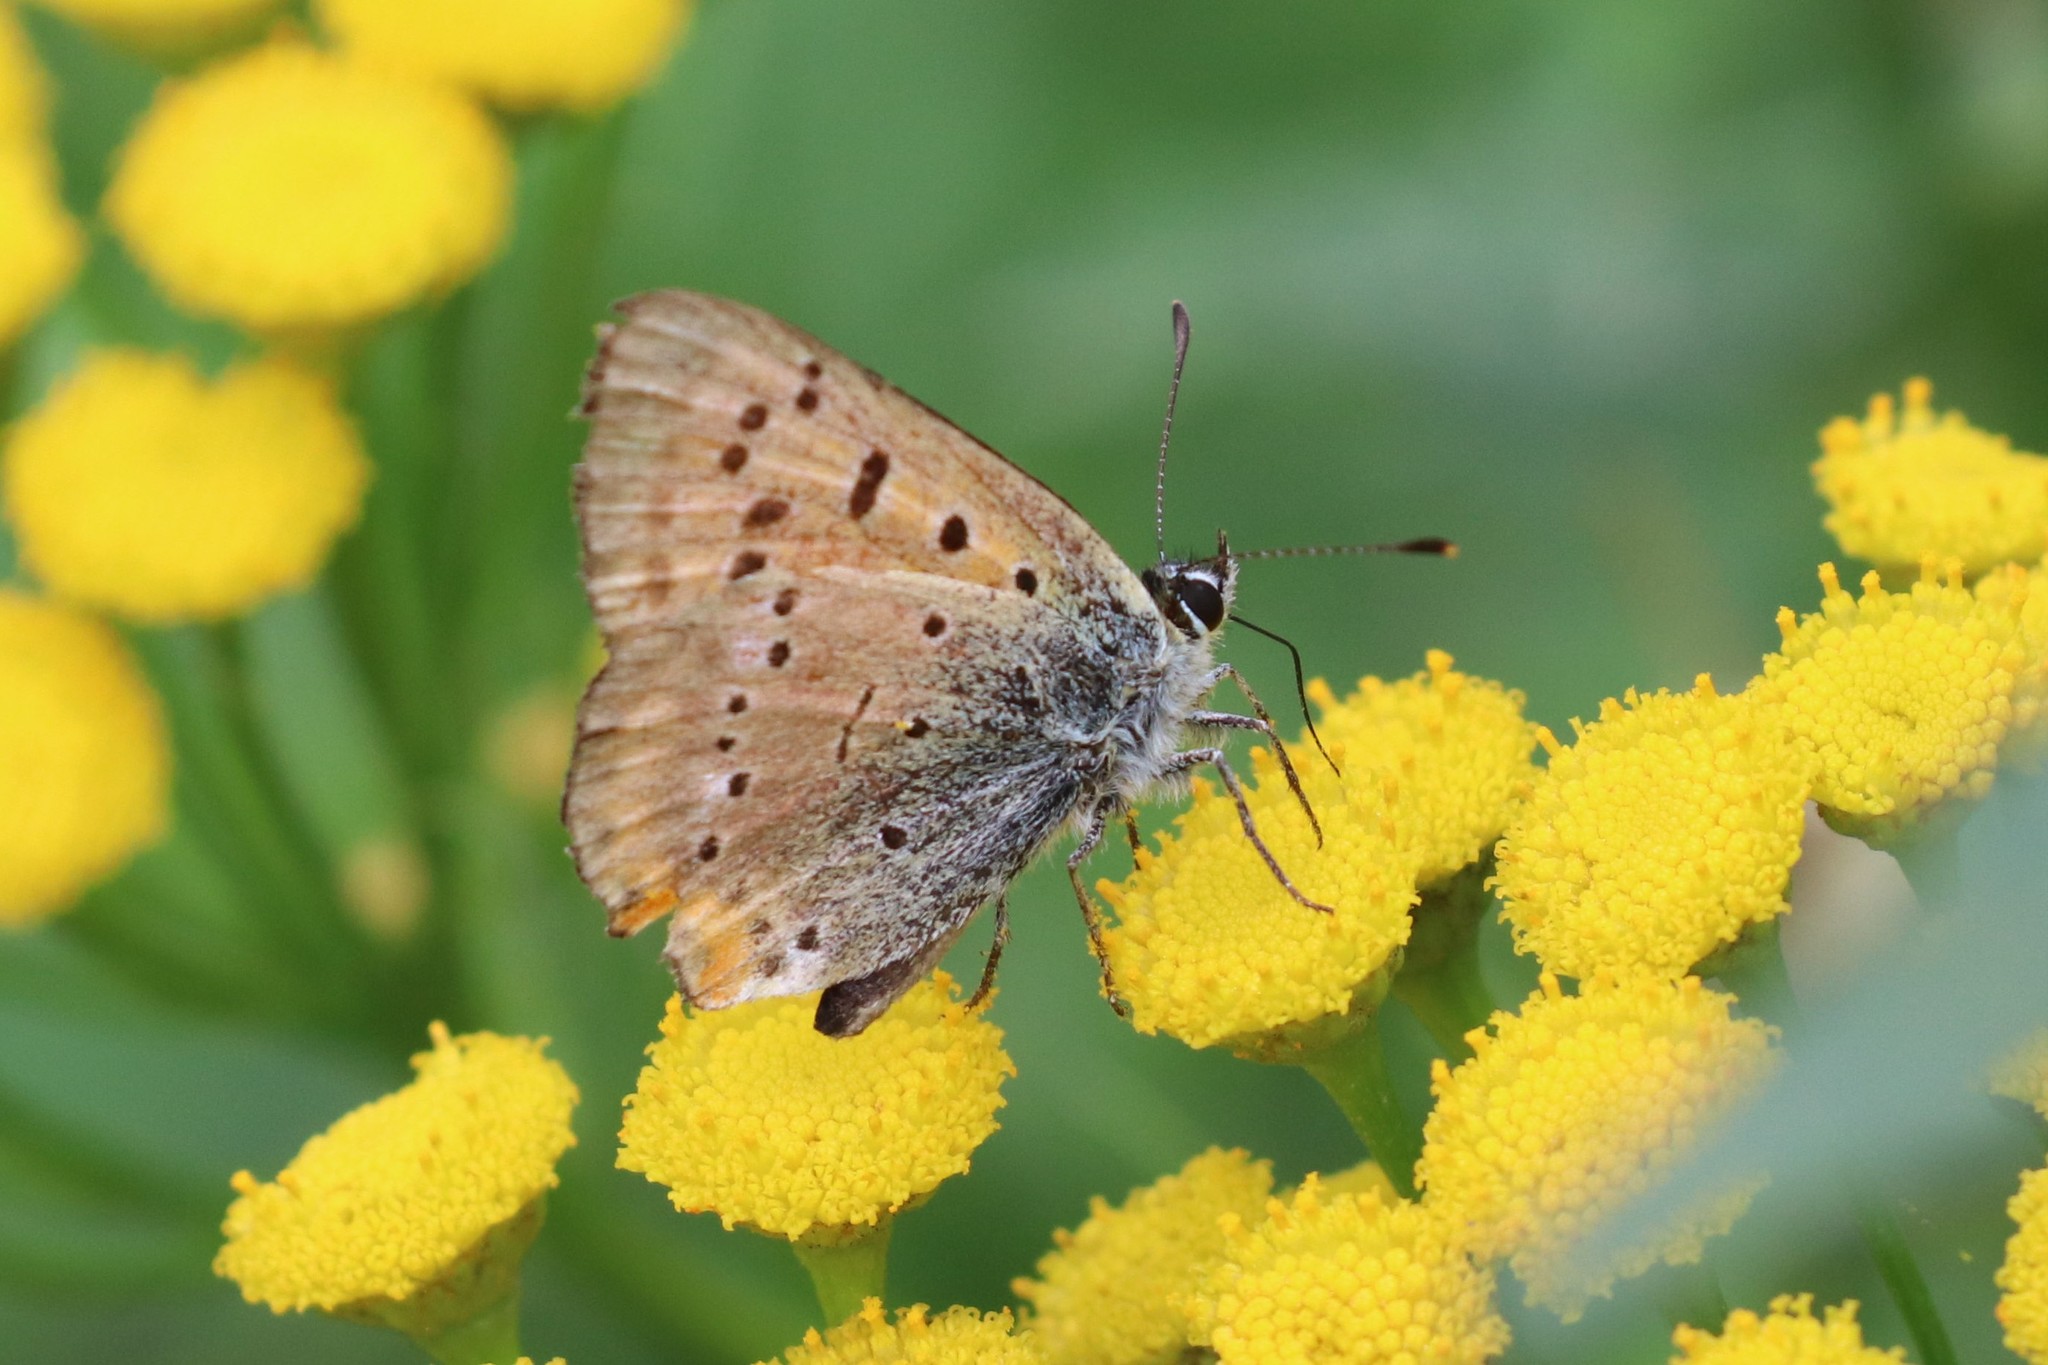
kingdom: Animalia
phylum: Arthropoda
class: Insecta
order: Lepidoptera
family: Lycaenidae
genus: Lycaena
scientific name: Lycaena virgaureae
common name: Scarce copper
